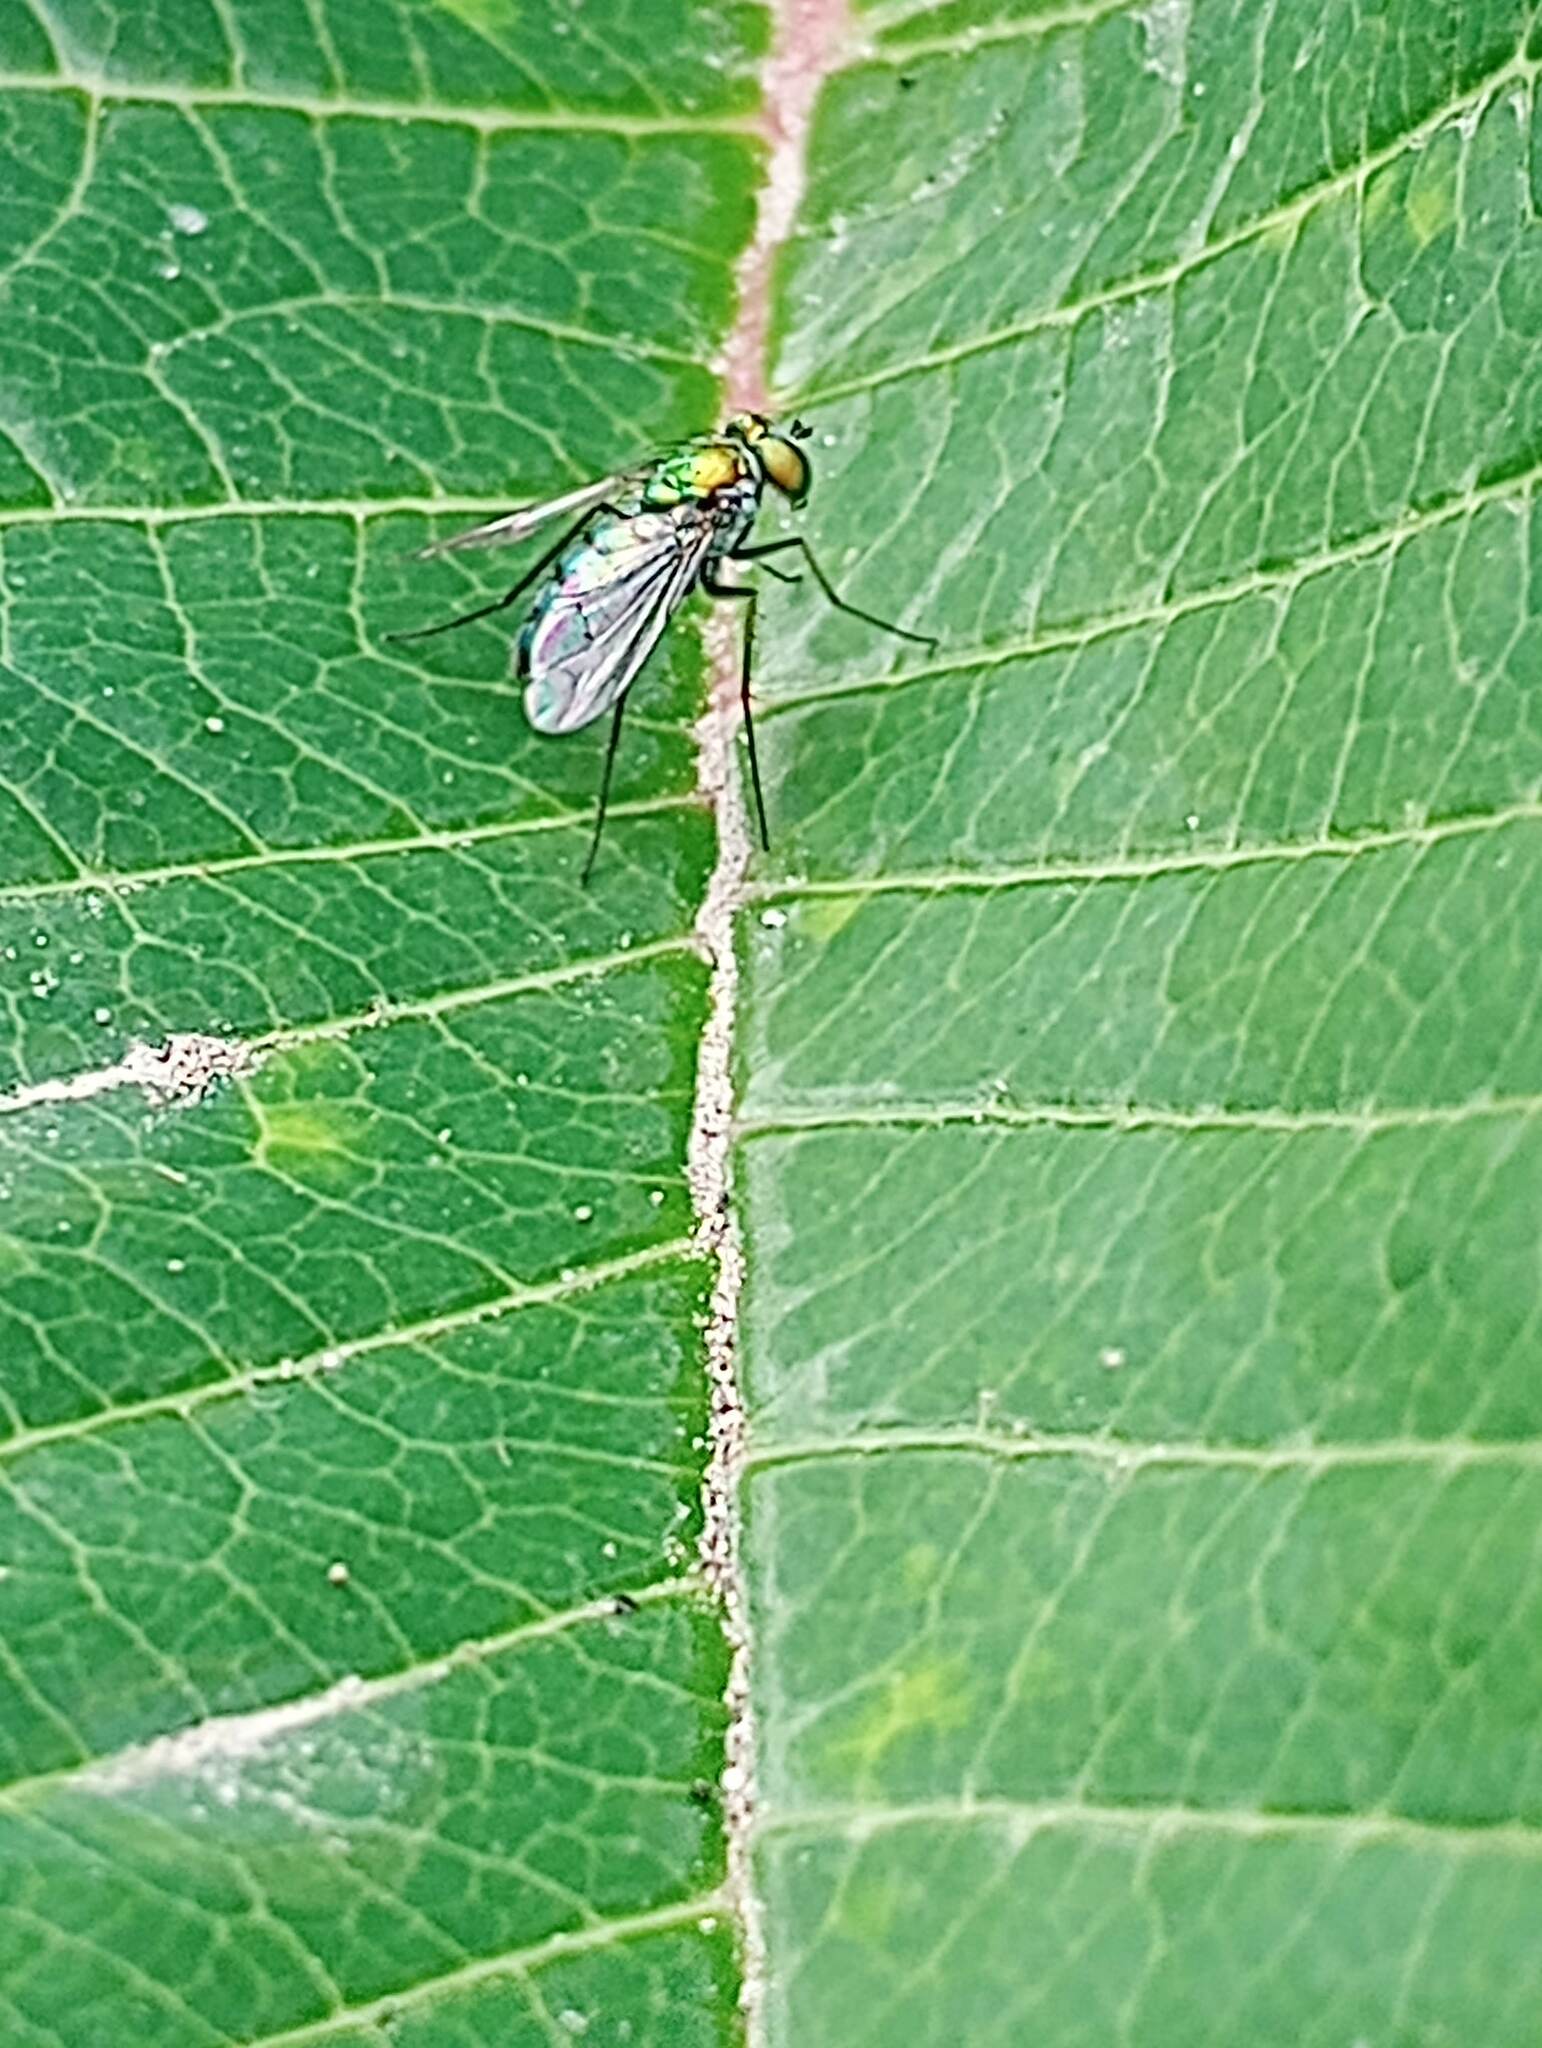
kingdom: Animalia
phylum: Arthropoda
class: Insecta
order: Diptera
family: Dolichopodidae
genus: Condylostylus
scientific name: Condylostylus longicornis
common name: Long-legged fly
